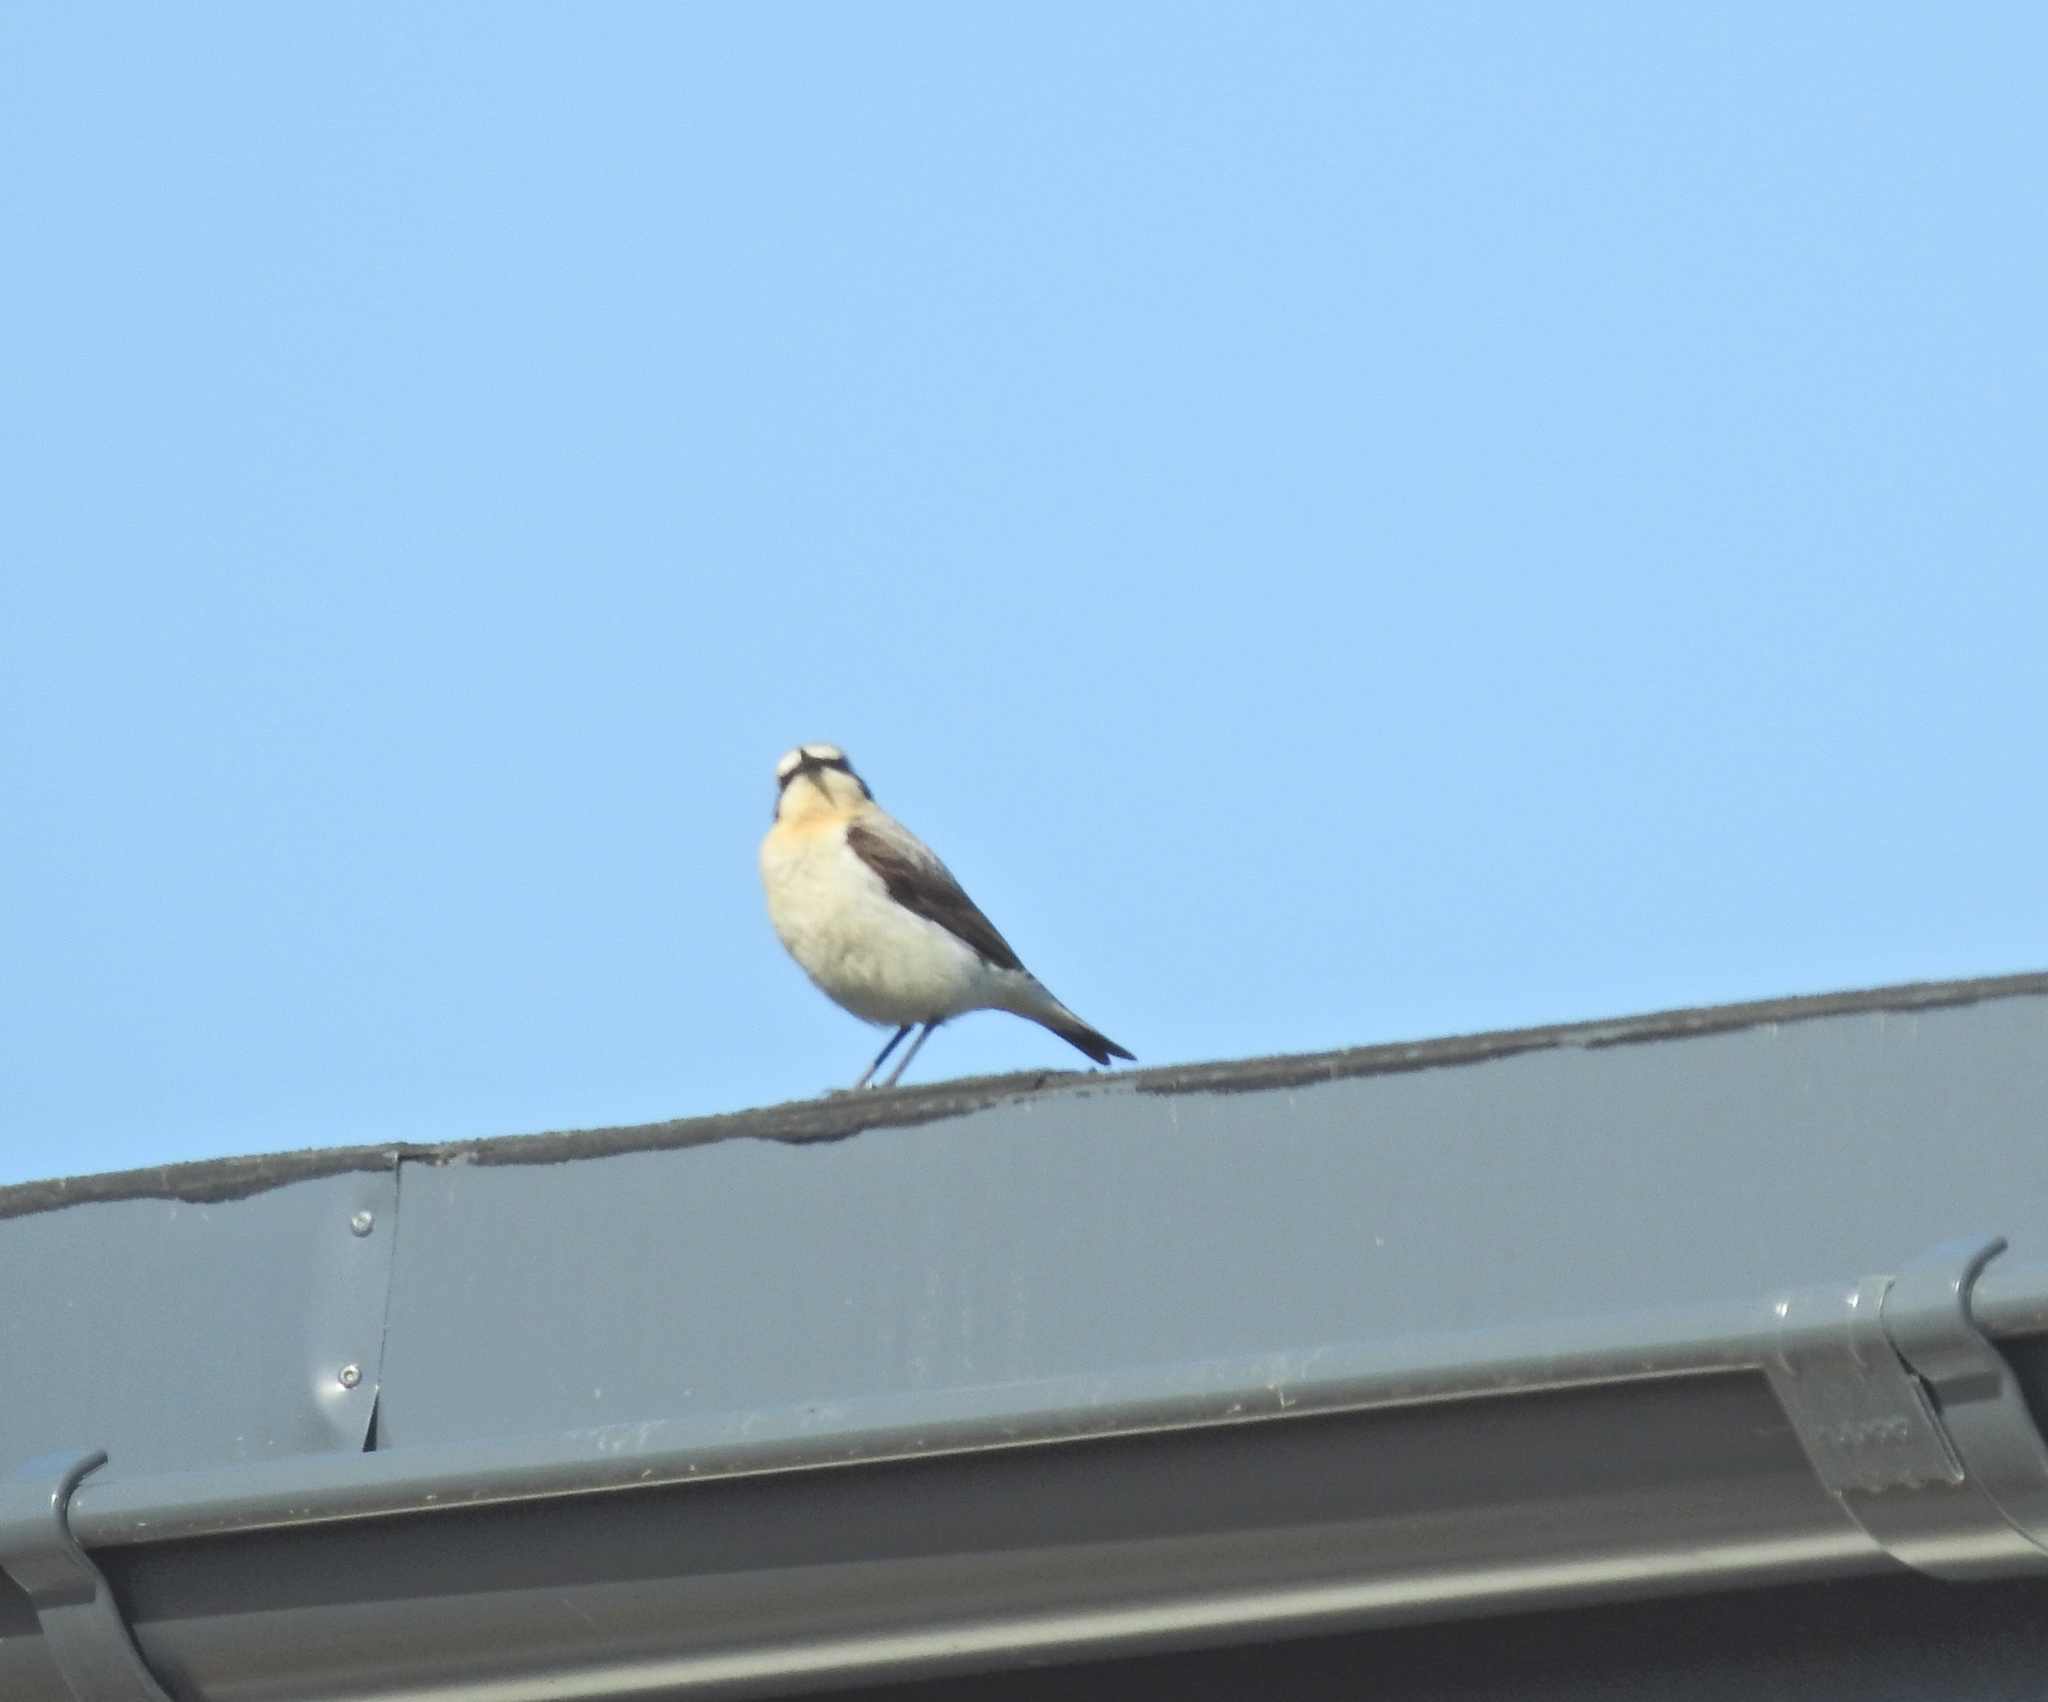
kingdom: Animalia
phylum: Chordata
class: Aves
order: Passeriformes
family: Muscicapidae
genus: Oenanthe
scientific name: Oenanthe oenanthe
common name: Northern wheatear
